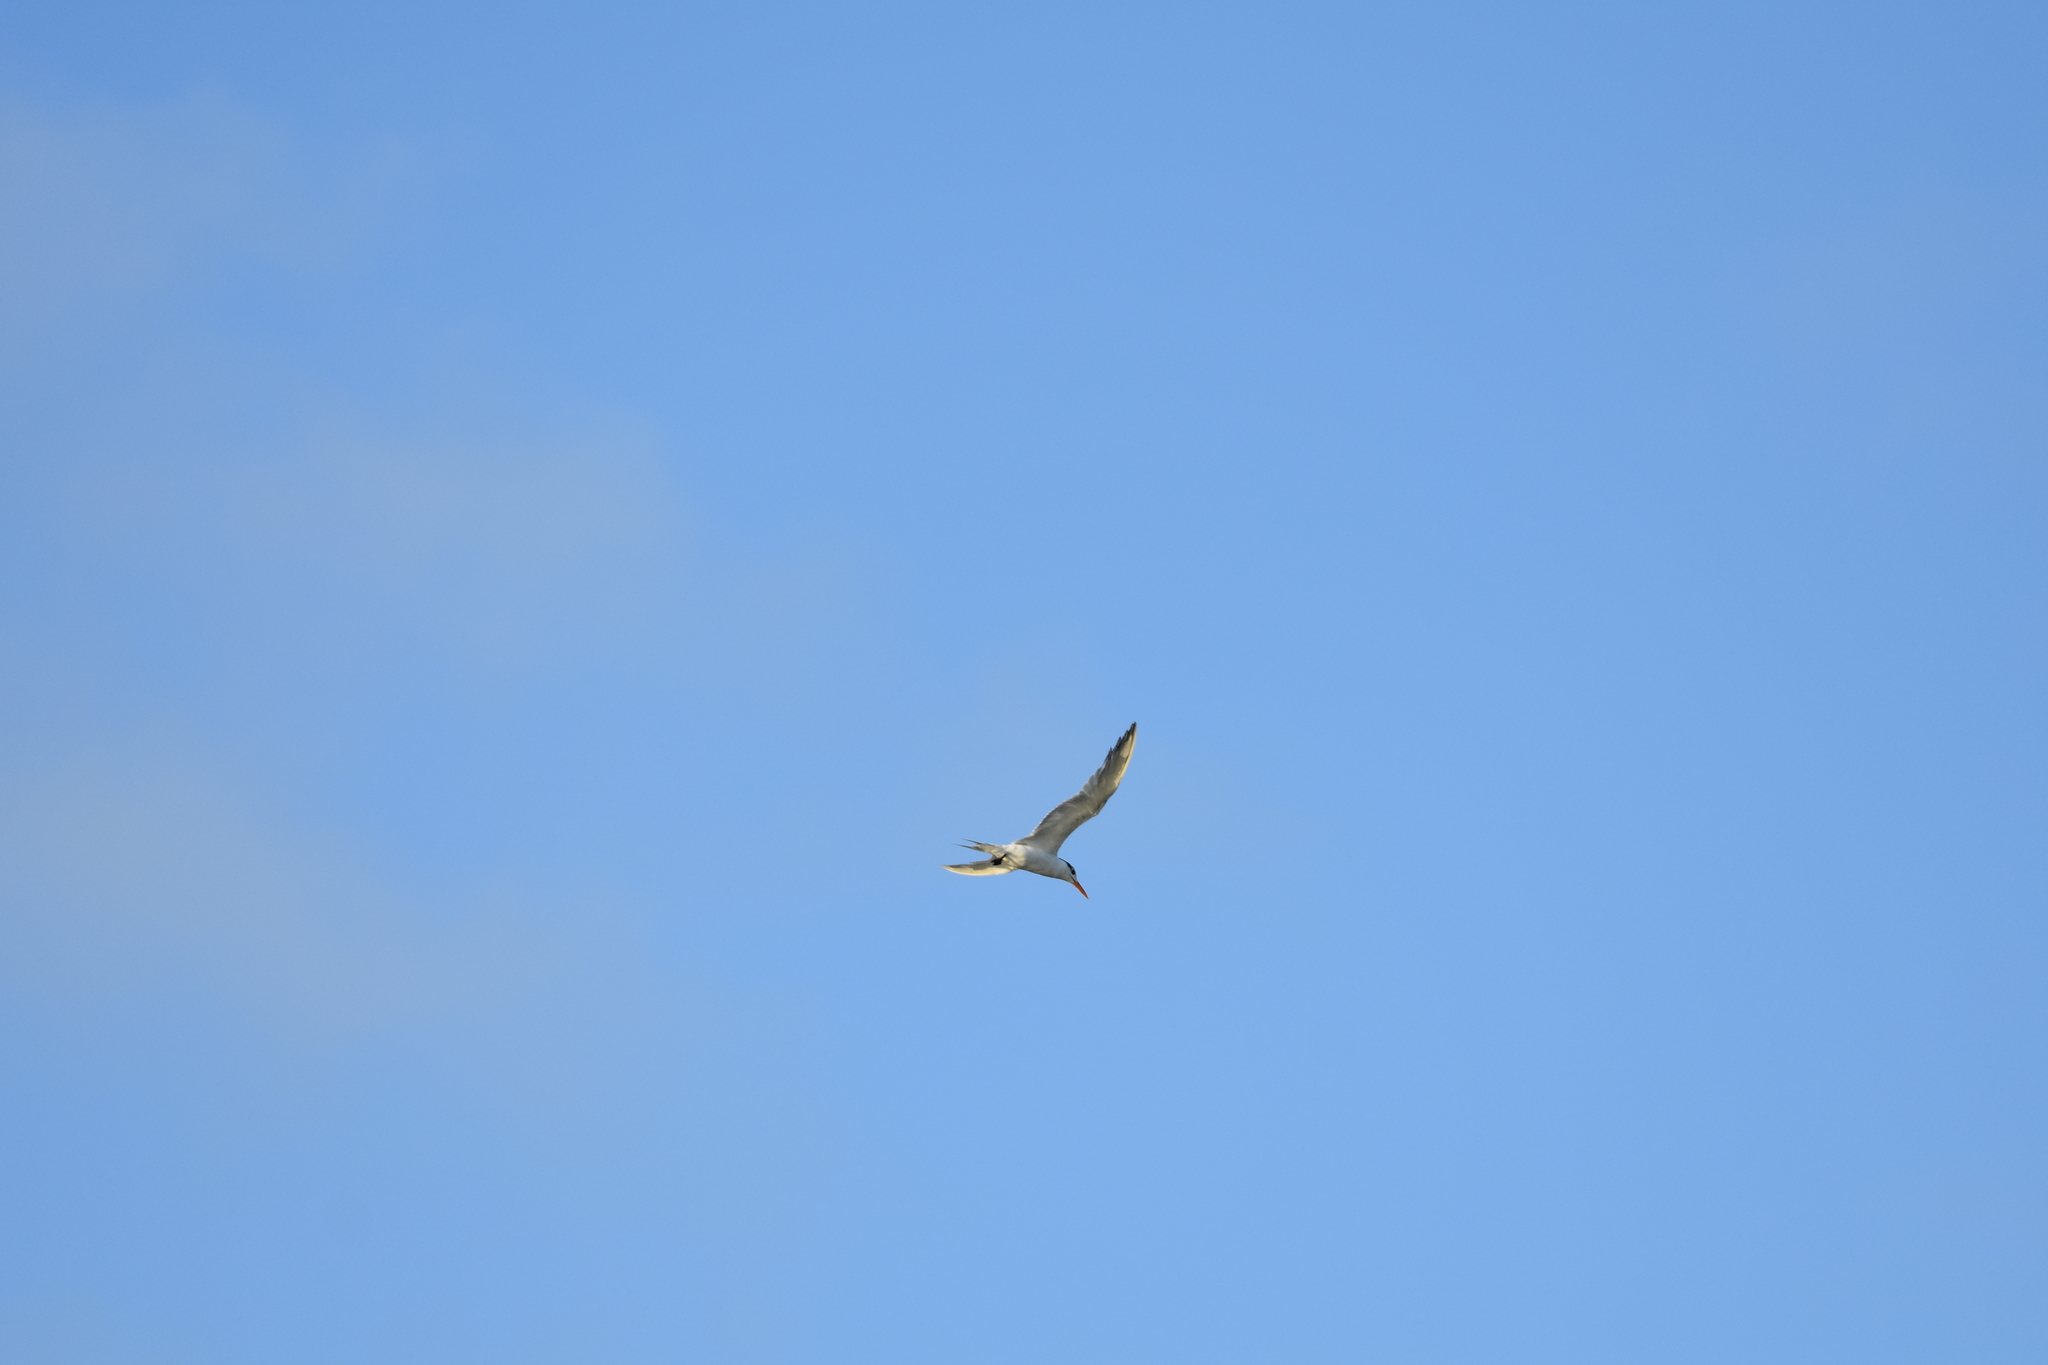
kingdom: Animalia
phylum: Chordata
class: Aves
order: Charadriiformes
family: Laridae
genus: Thalasseus
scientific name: Thalasseus maximus
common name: Royal tern
